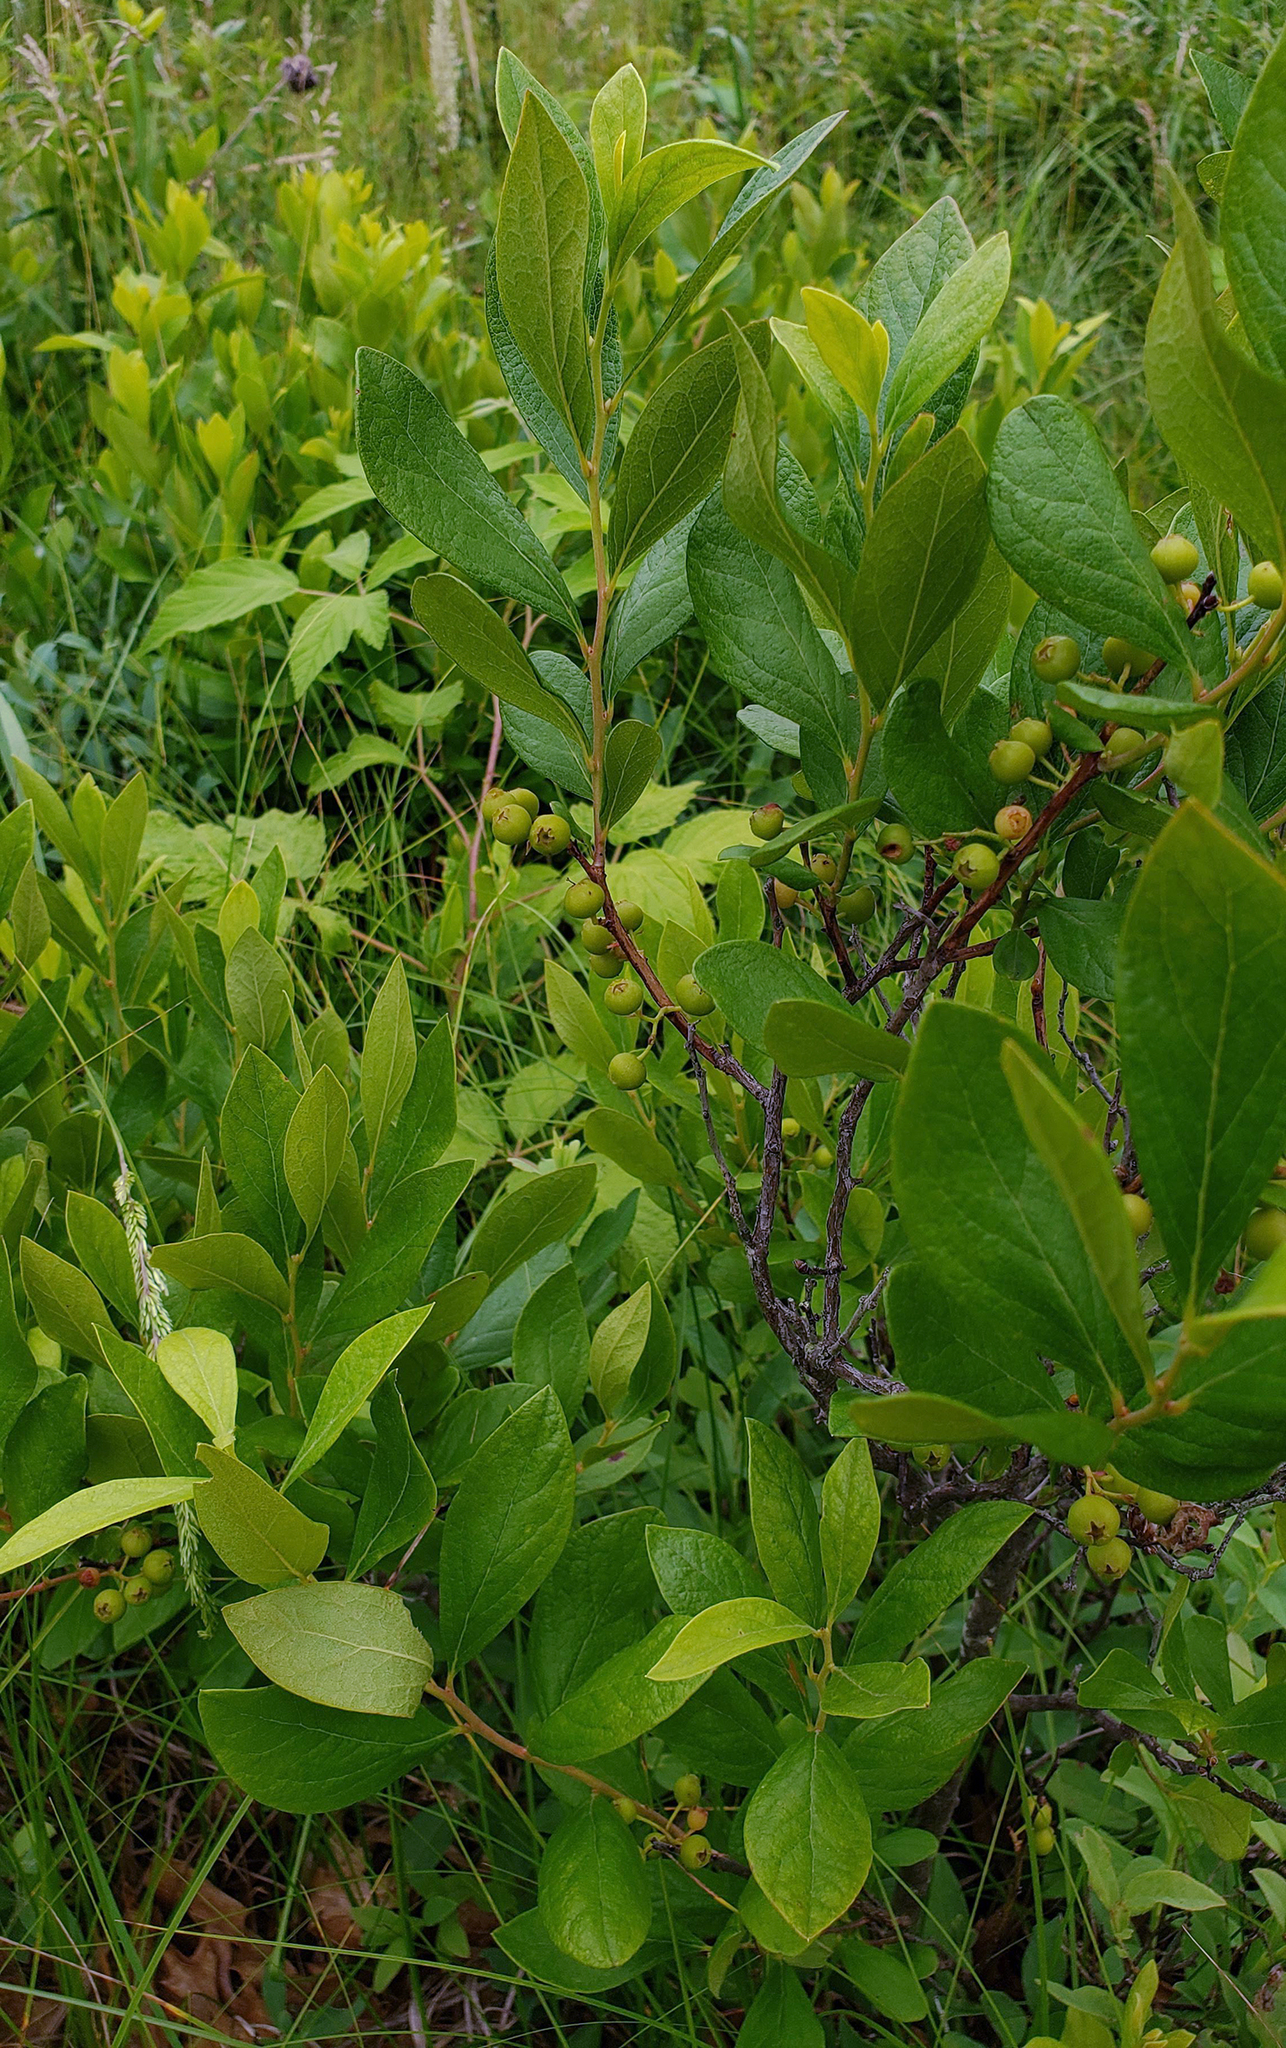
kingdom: Plantae
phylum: Tracheophyta
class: Magnoliopsida
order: Ericales
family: Ericaceae
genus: Gaylussacia
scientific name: Gaylussacia baccata
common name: Black huckleberry
